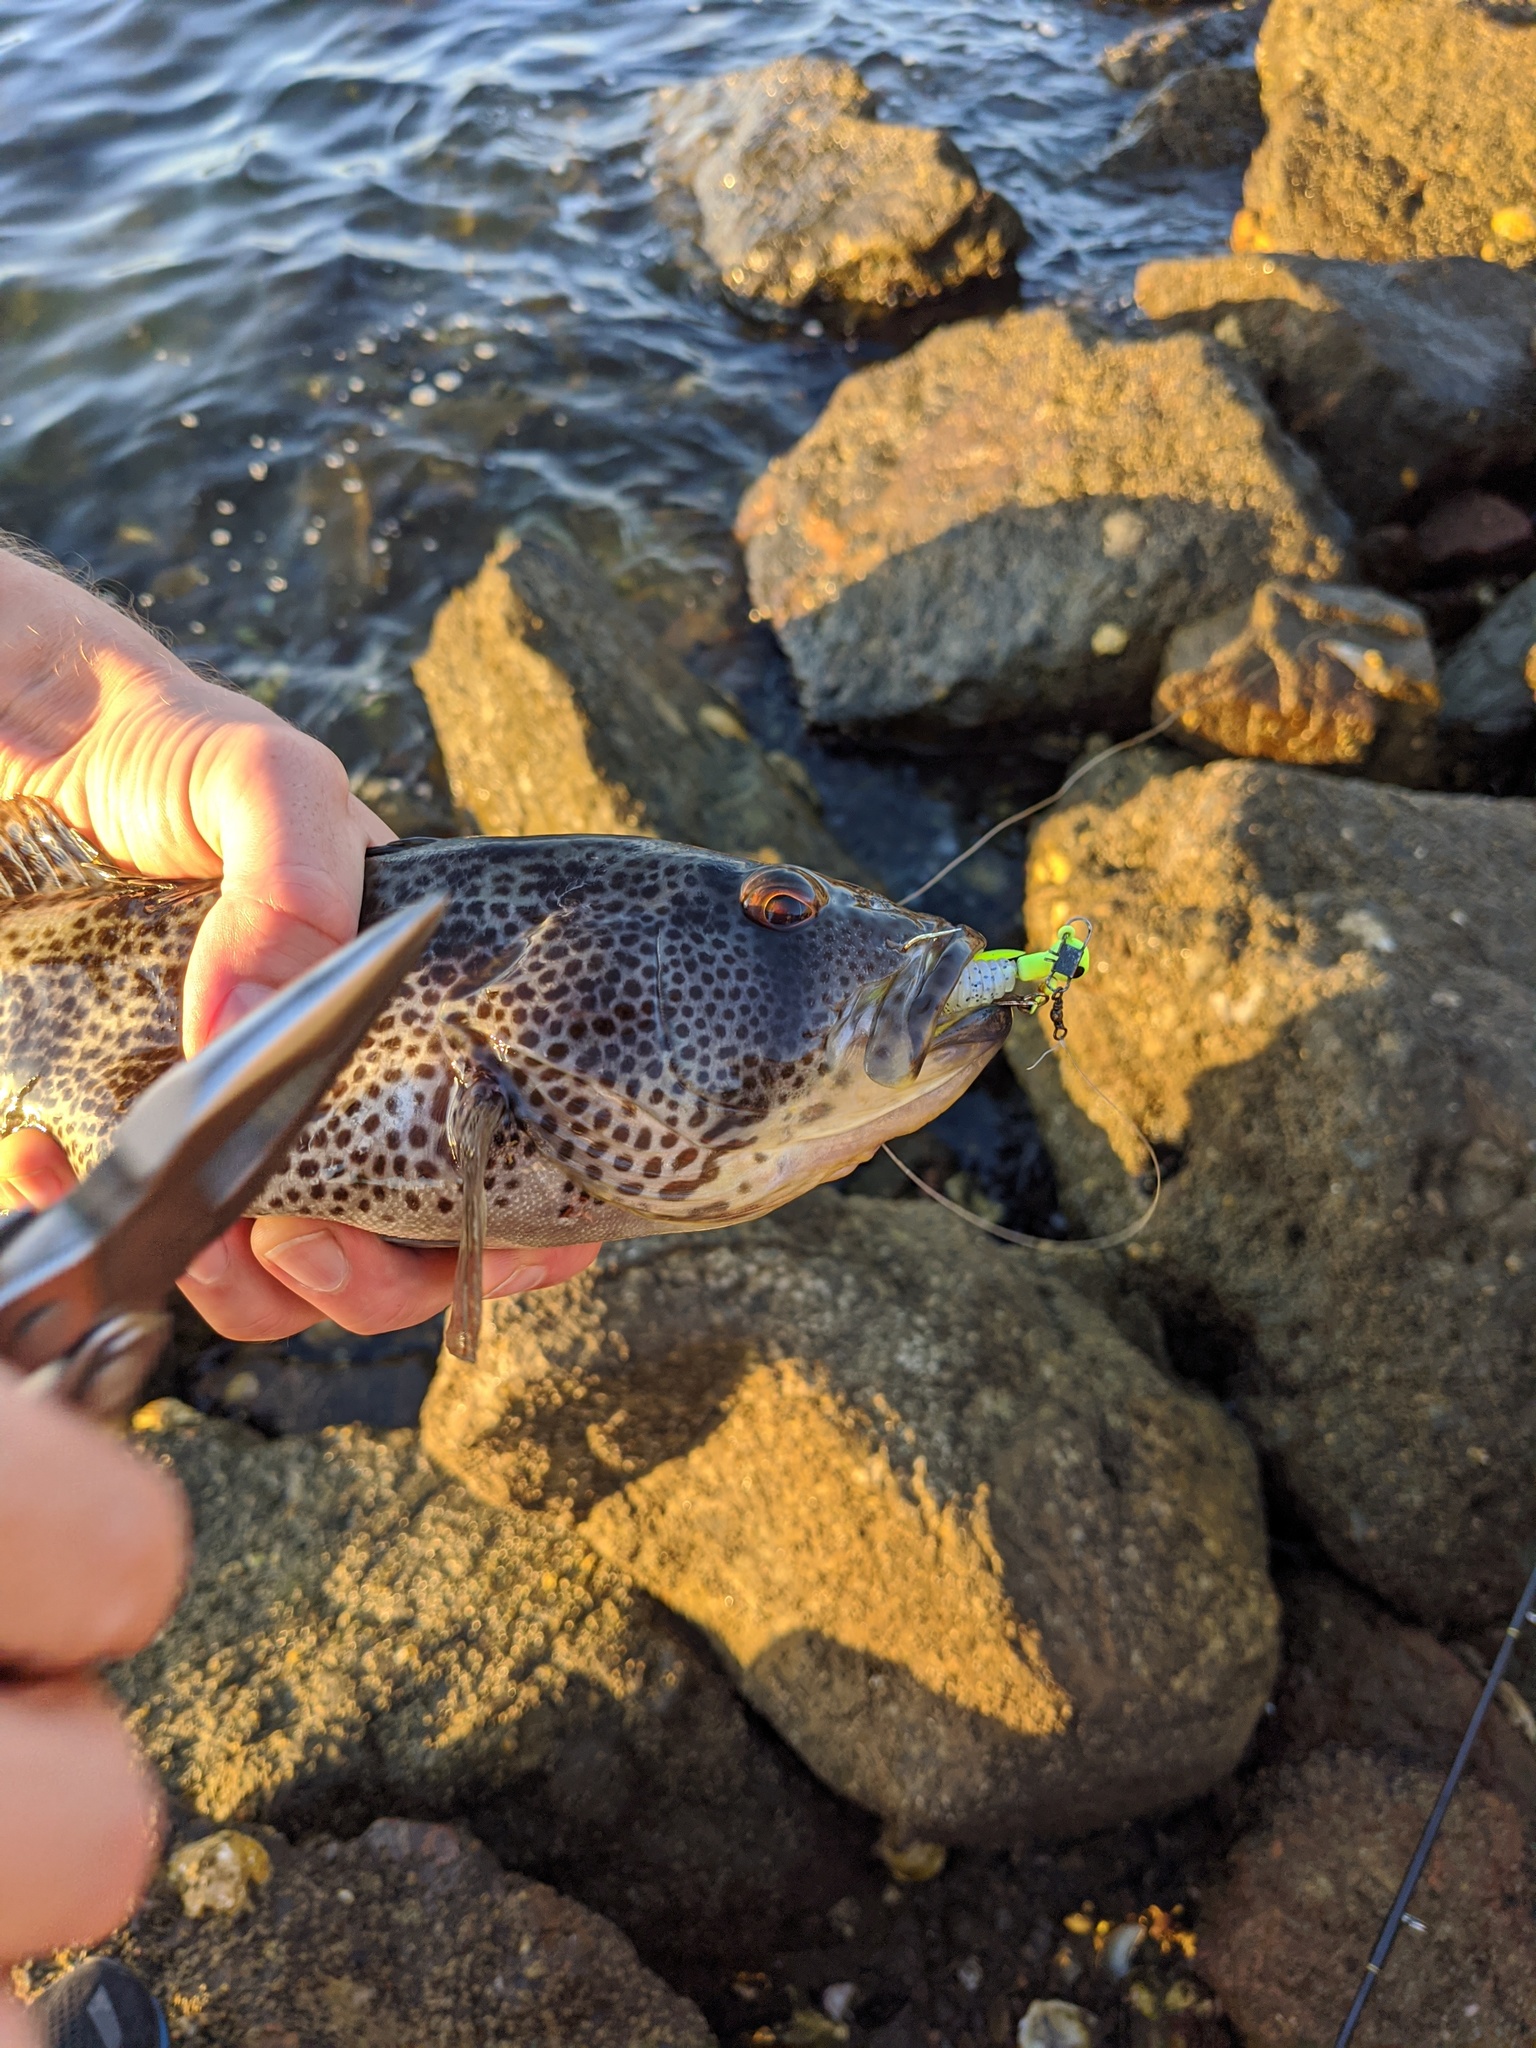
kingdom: Animalia
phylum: Chordata
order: Perciformes
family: Serranidae
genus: Paralabrax
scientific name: Paralabrax maculatofasciatus
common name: Spotted sand bass
